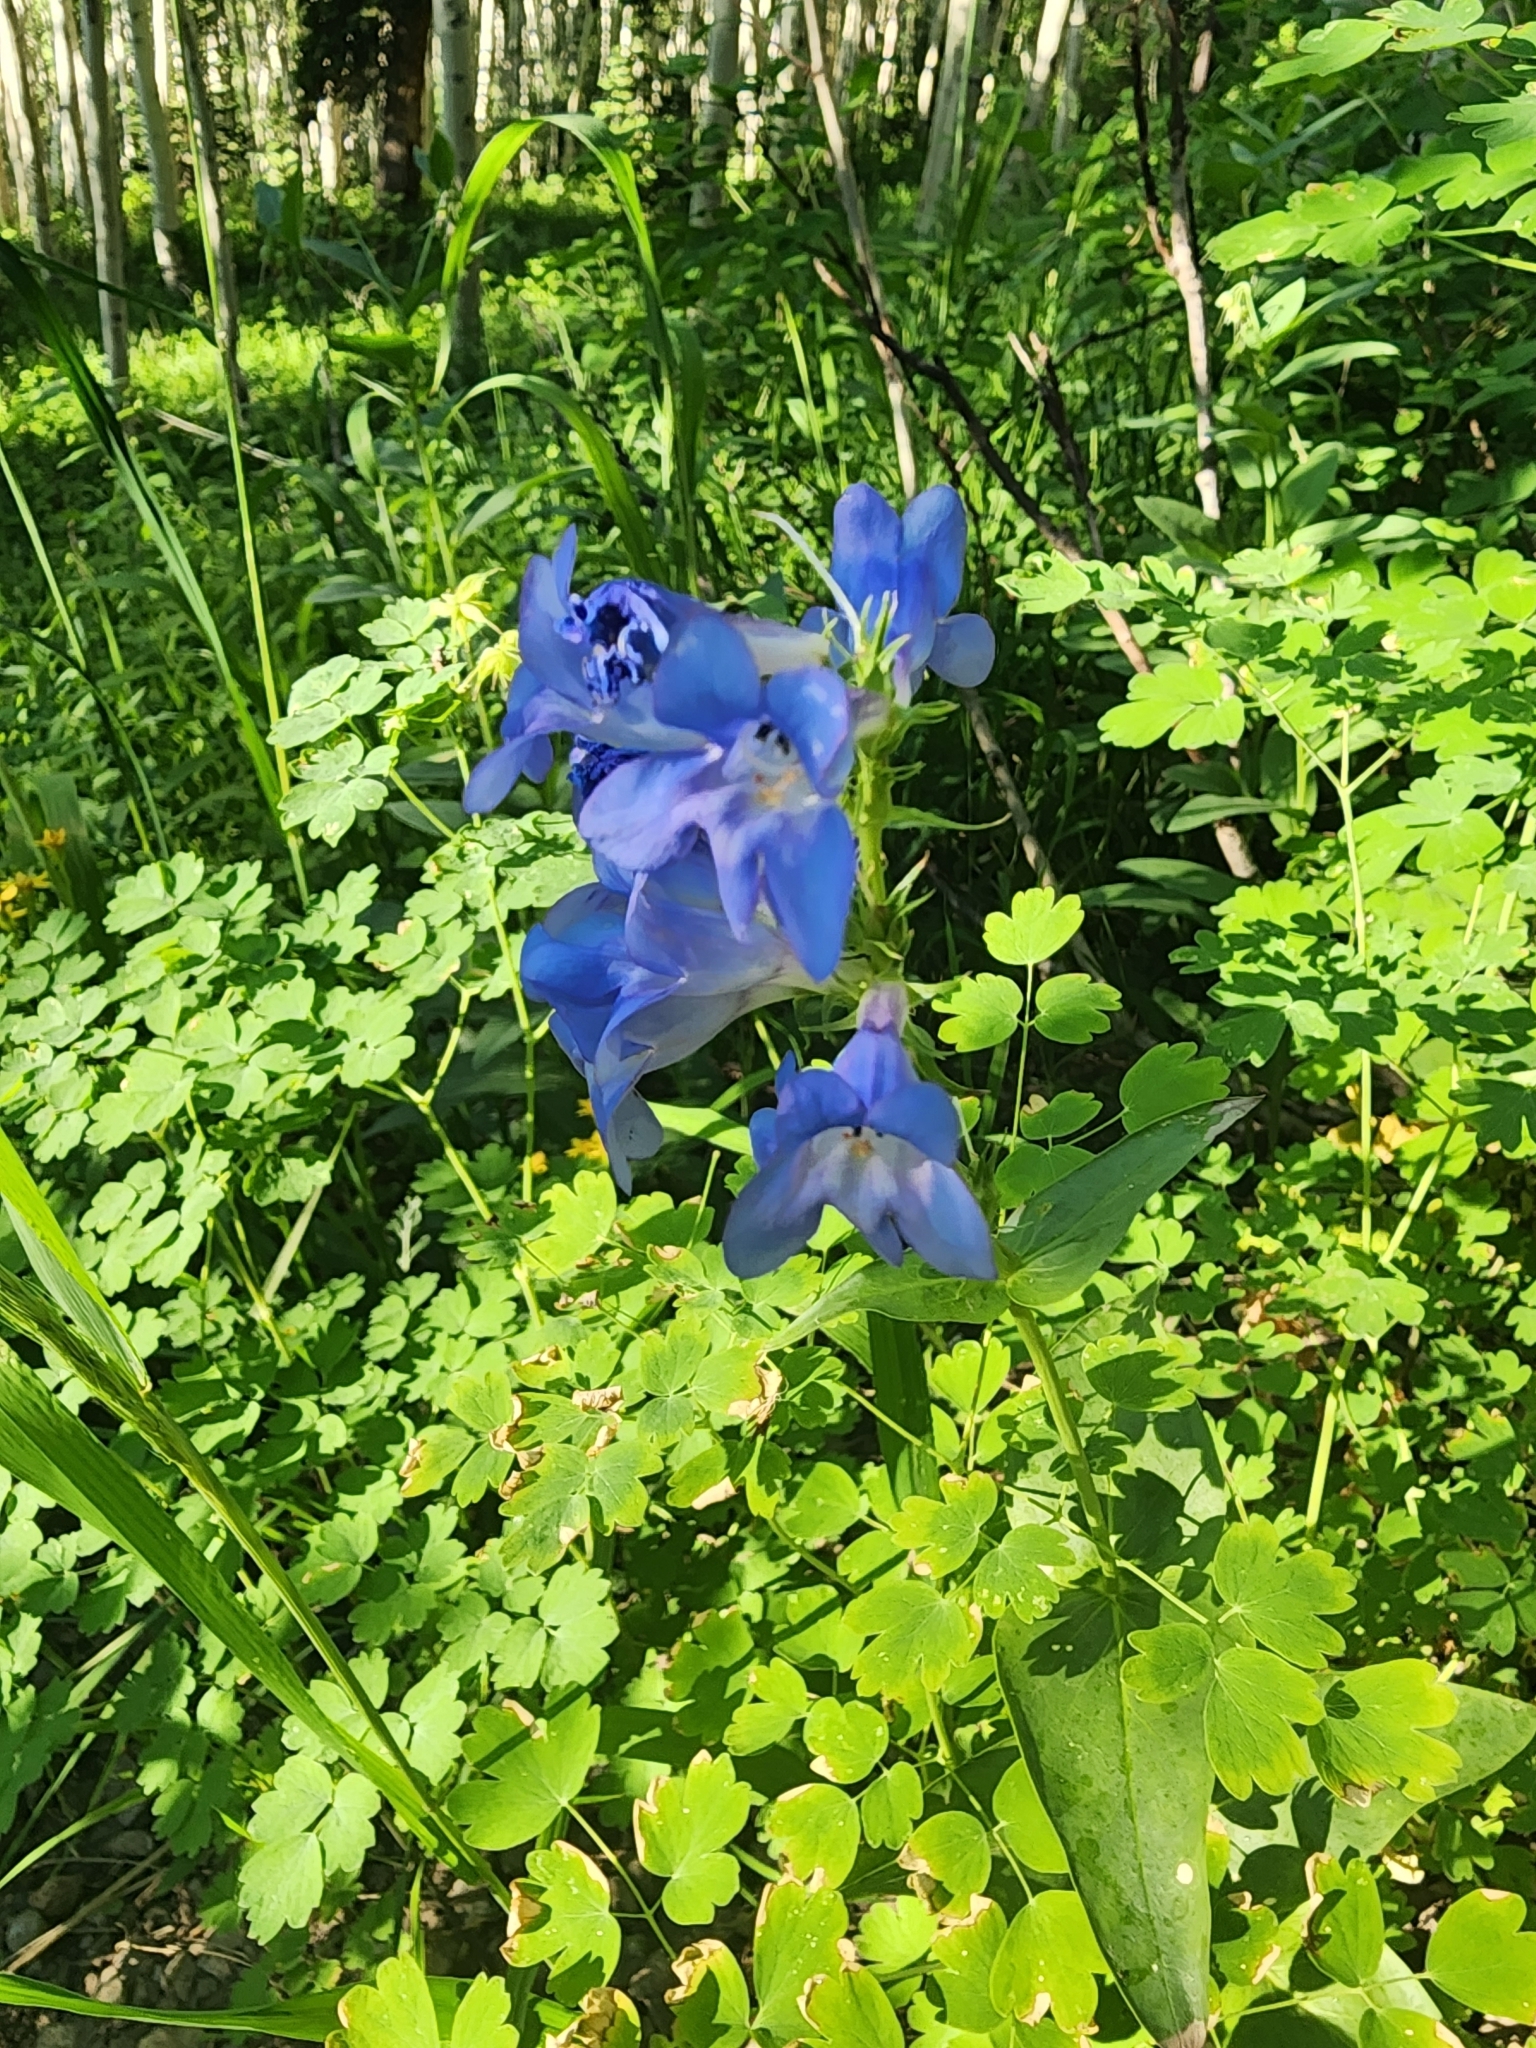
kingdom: Plantae
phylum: Tracheophyta
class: Magnoliopsida
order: Lamiales
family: Plantaginaceae
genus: Penstemon
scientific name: Penstemon cyananthus
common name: Wasatch penstemon
